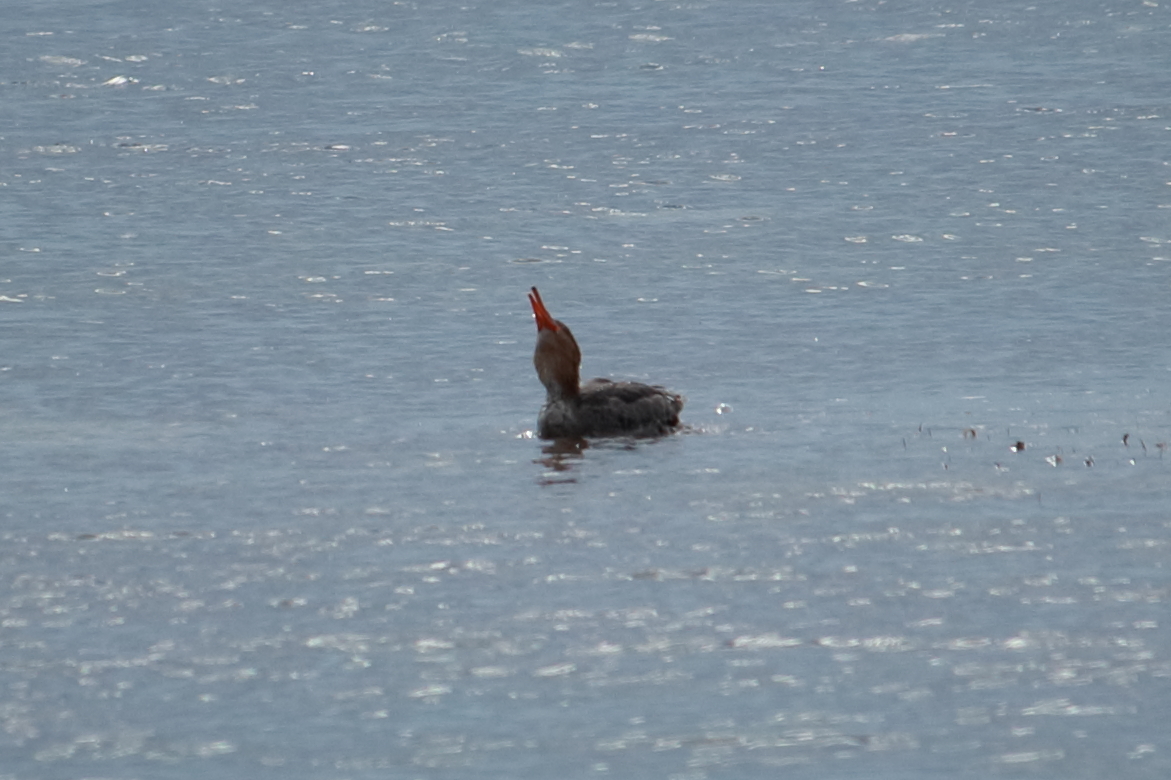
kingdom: Animalia
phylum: Chordata
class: Aves
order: Anseriformes
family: Anatidae
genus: Mergus
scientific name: Mergus serrator
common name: Red-breasted merganser
